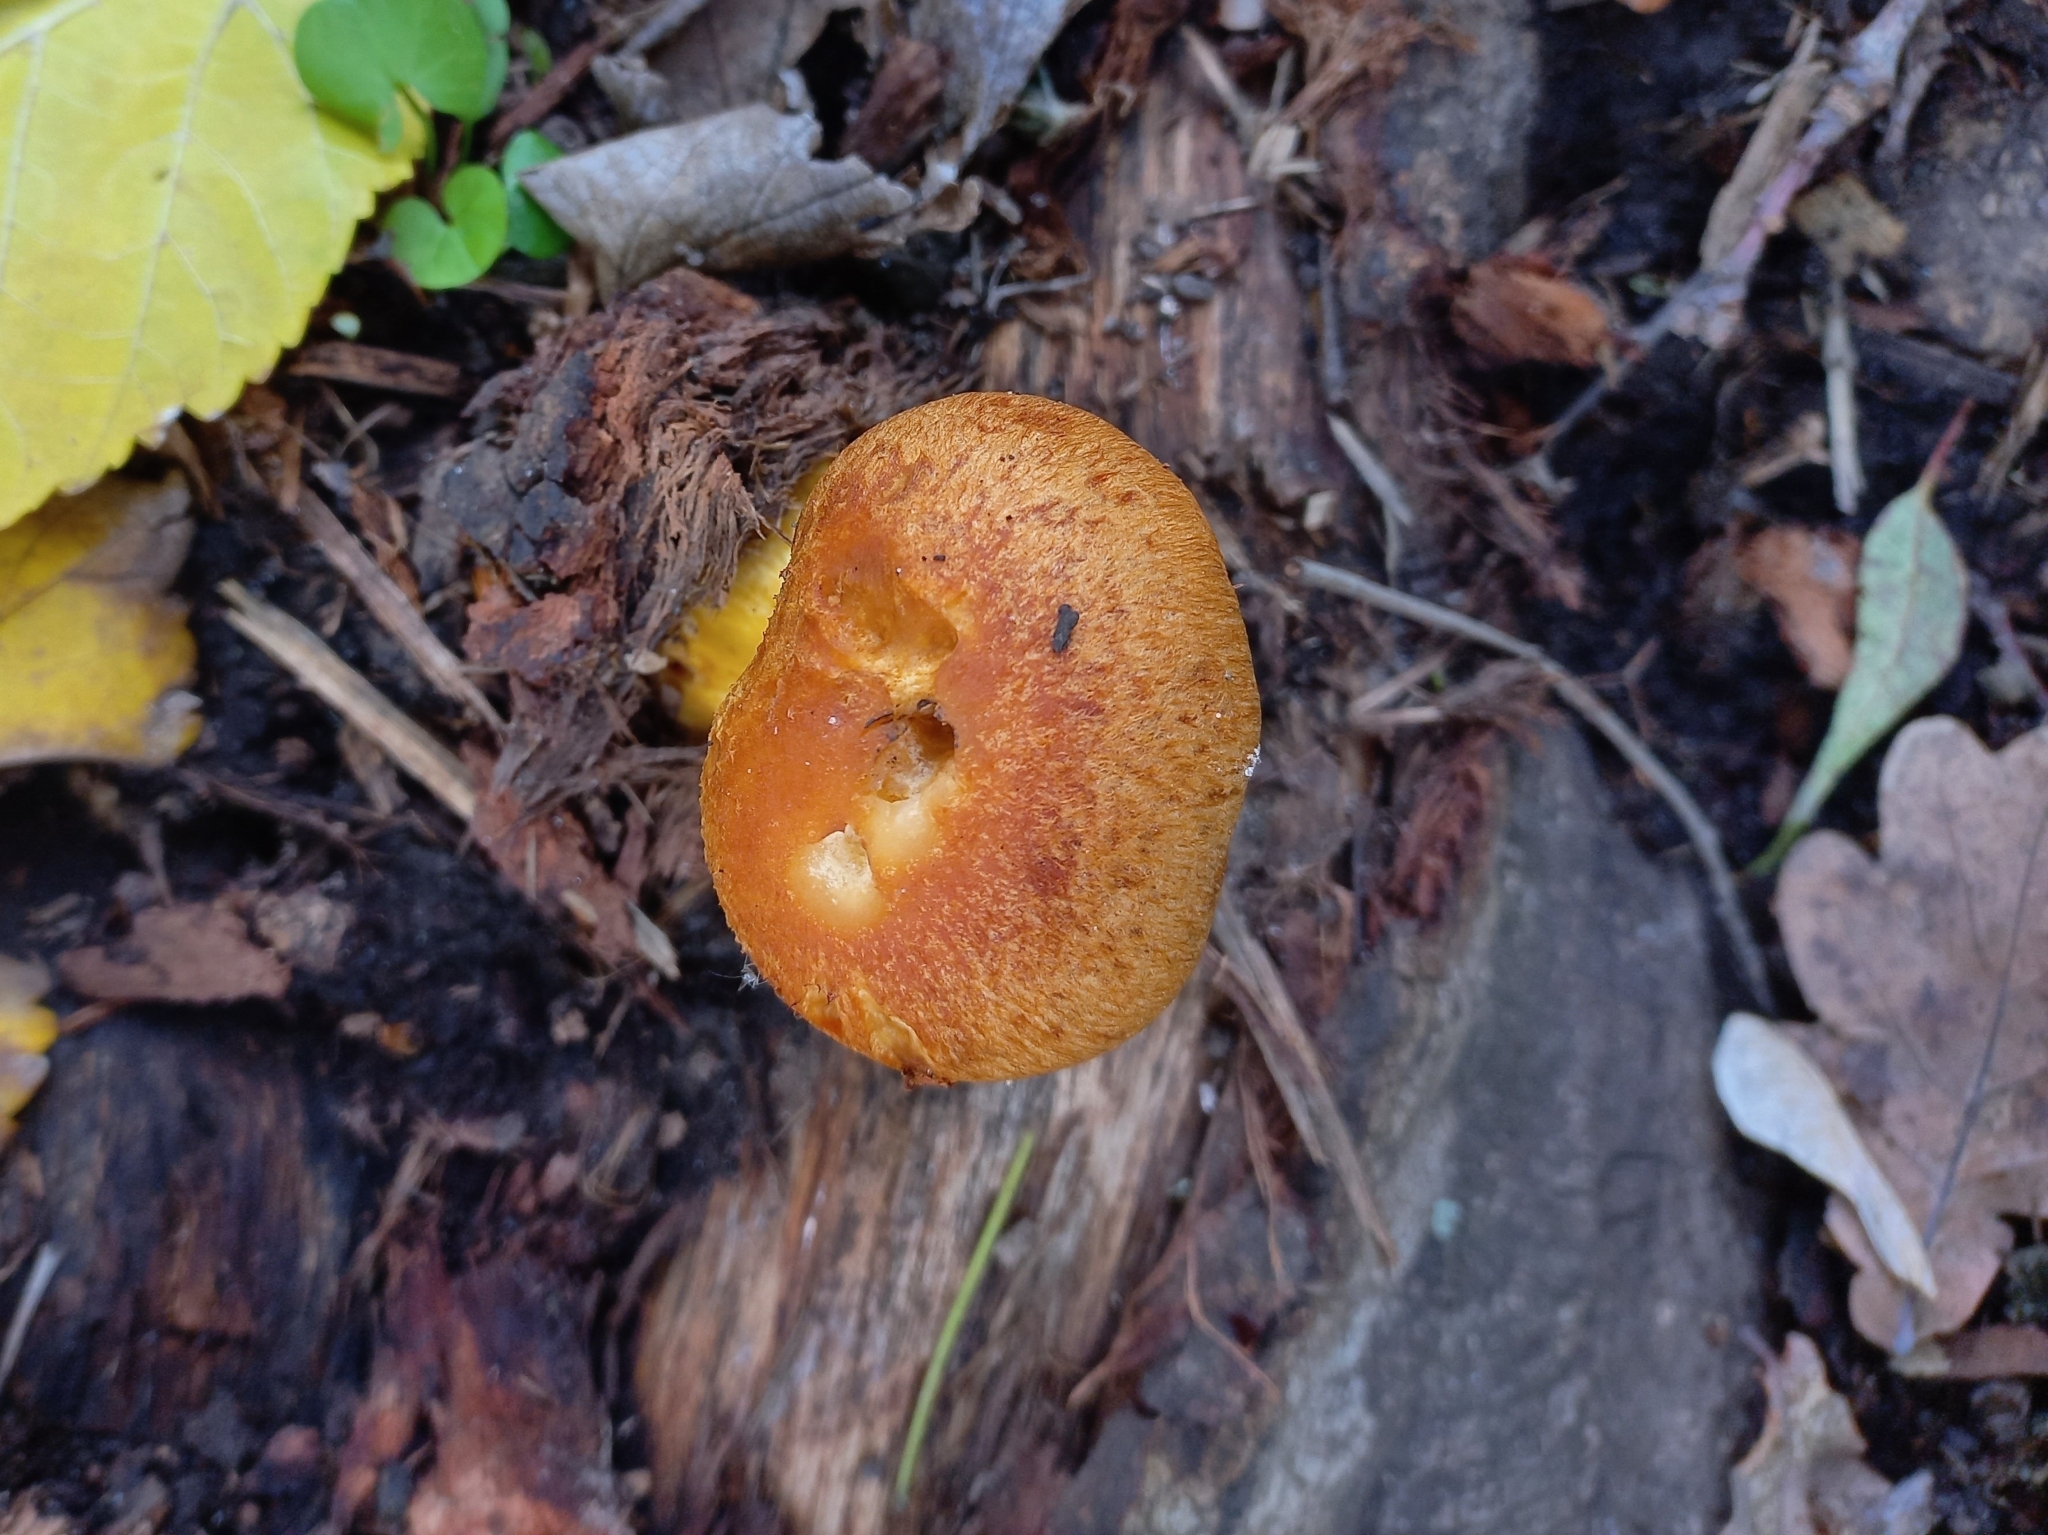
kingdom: Fungi
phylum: Basidiomycota
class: Agaricomycetes
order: Agaricales
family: Hymenogastraceae
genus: Gymnopilus
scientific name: Gymnopilus junonius
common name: Spectacular rustgill
